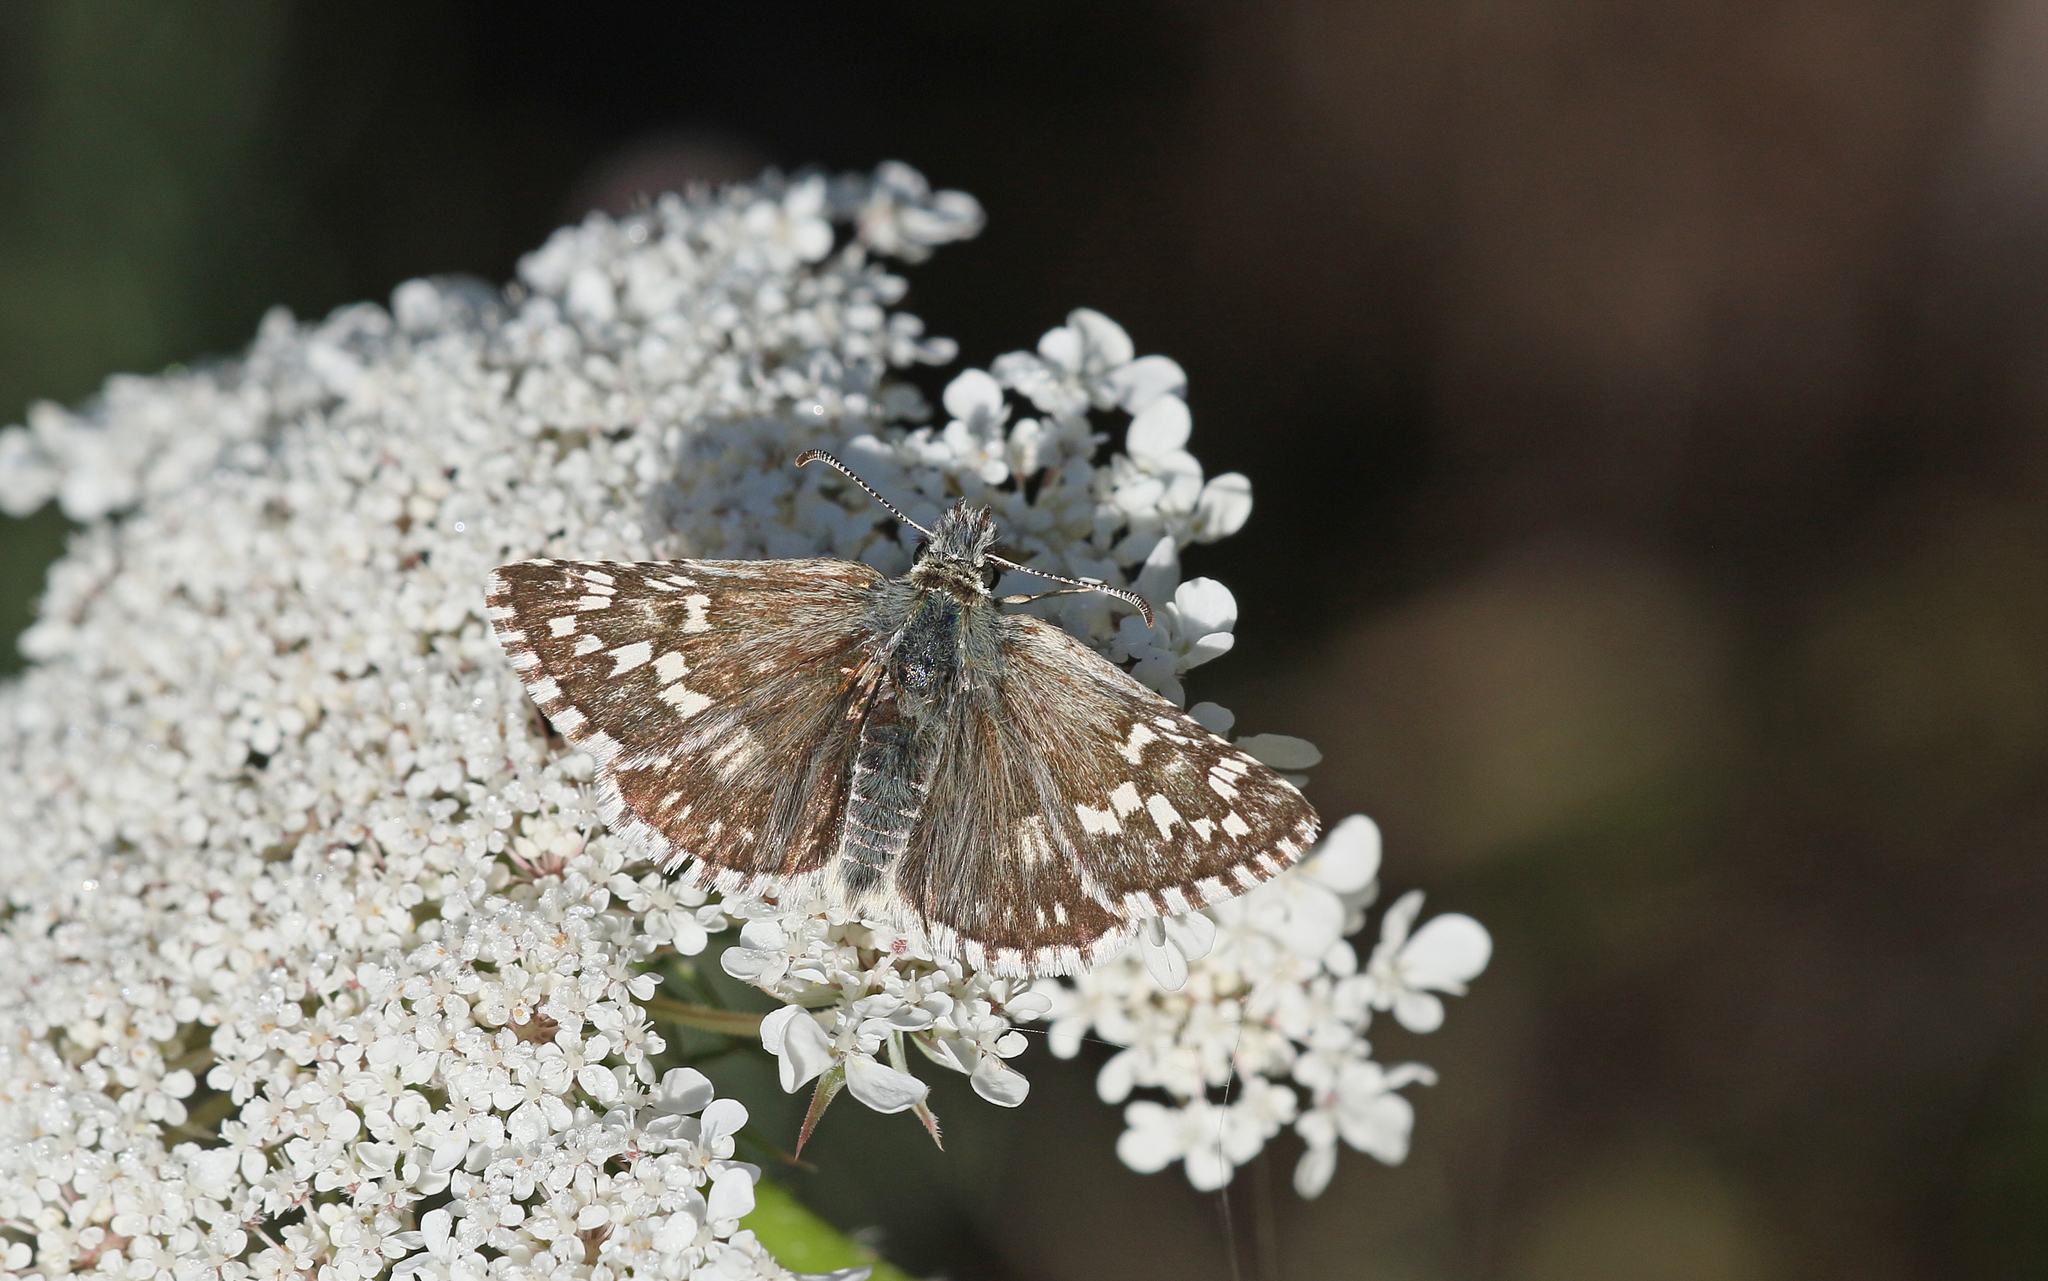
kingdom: Animalia
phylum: Arthropoda
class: Insecta
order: Lepidoptera
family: Hesperiidae
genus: Pyrgus
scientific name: Pyrgus fritillarius
